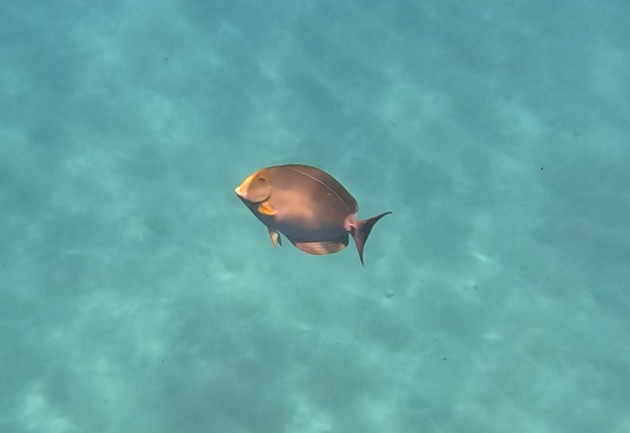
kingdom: Animalia
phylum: Chordata
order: Perciformes
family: Acanthuridae
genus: Acanthurus
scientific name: Acanthurus xanthopterus
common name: Cuvier's surgeonfish
